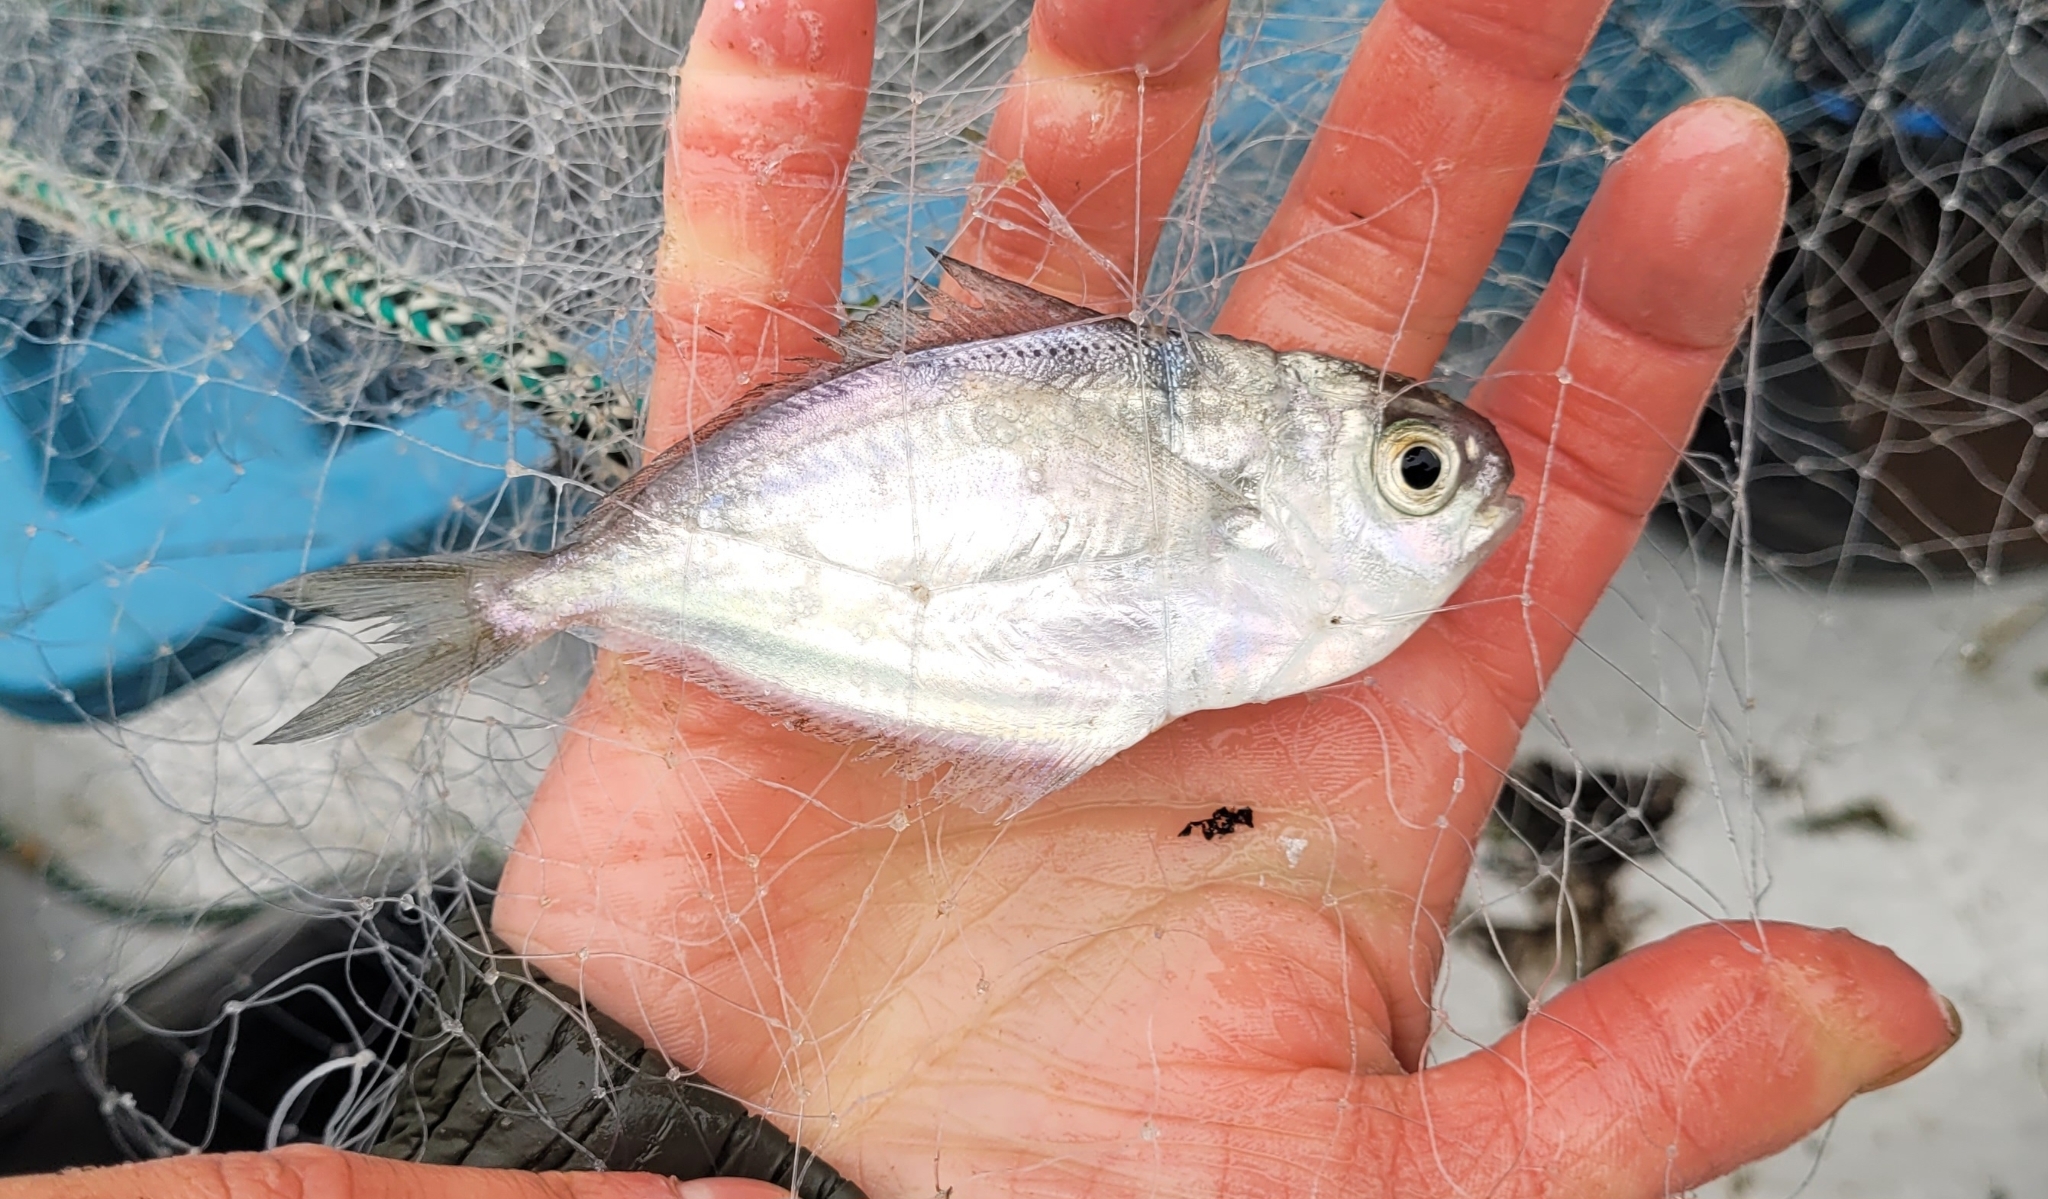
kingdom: Animalia
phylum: Chordata
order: Perciformes
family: Stromateidae
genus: Peprilus
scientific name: Peprilus triacanthus
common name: Butterfish
